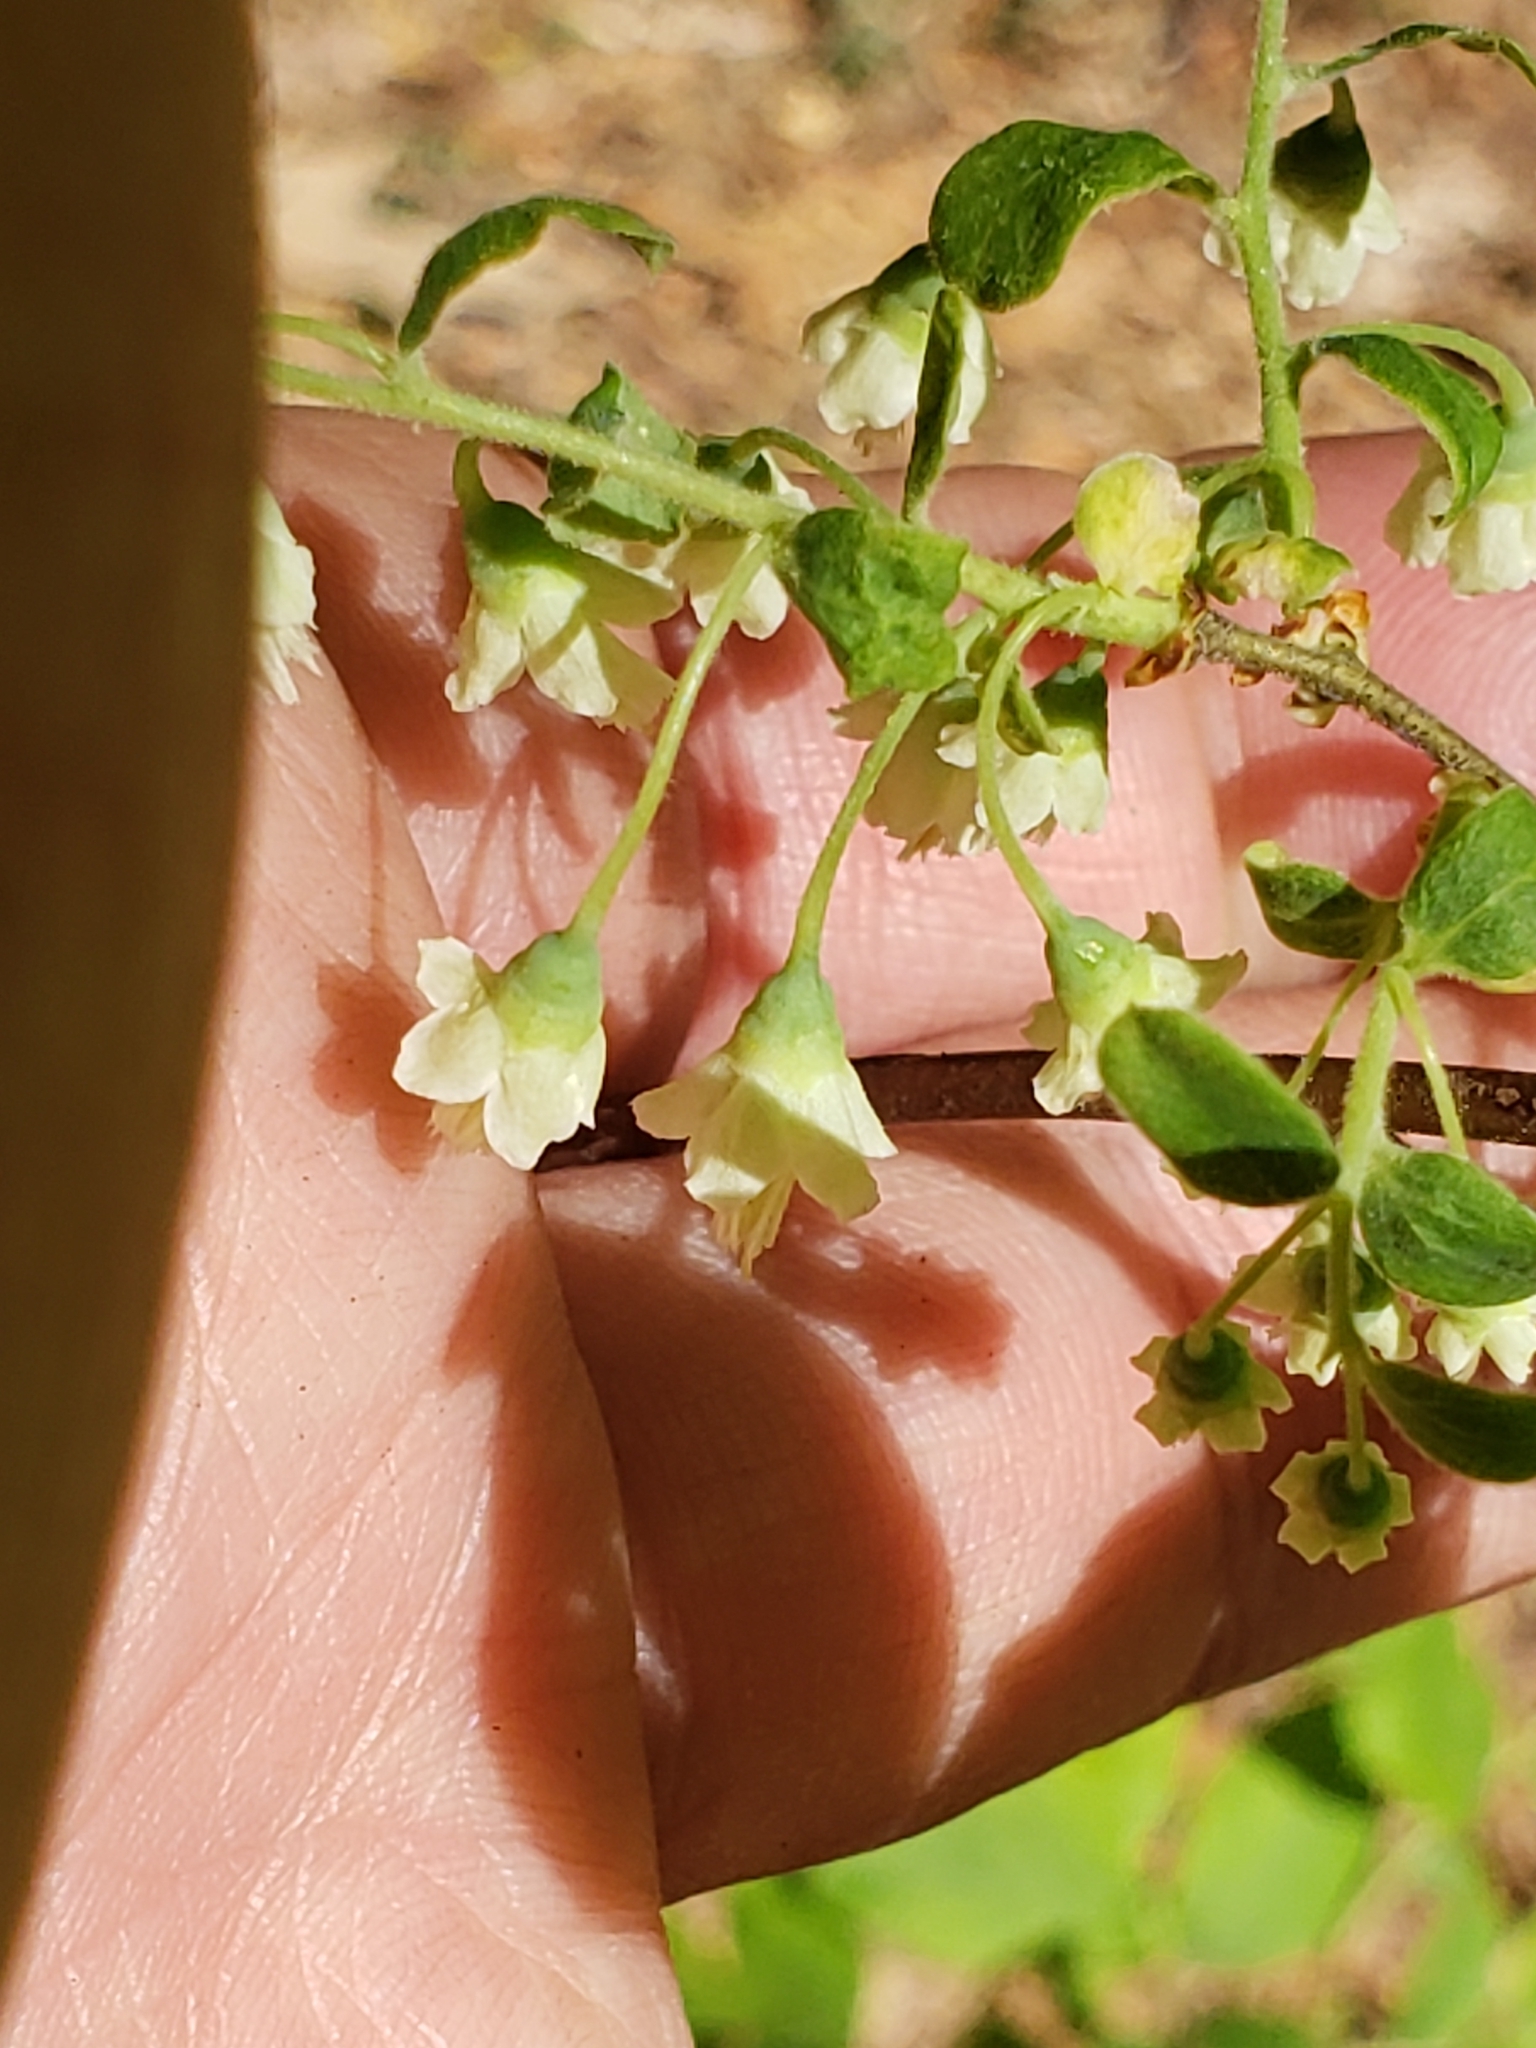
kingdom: Plantae
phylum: Tracheophyta
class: Magnoliopsida
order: Ericales
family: Ericaceae
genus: Vaccinium
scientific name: Vaccinium stamineum
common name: Deerberry
